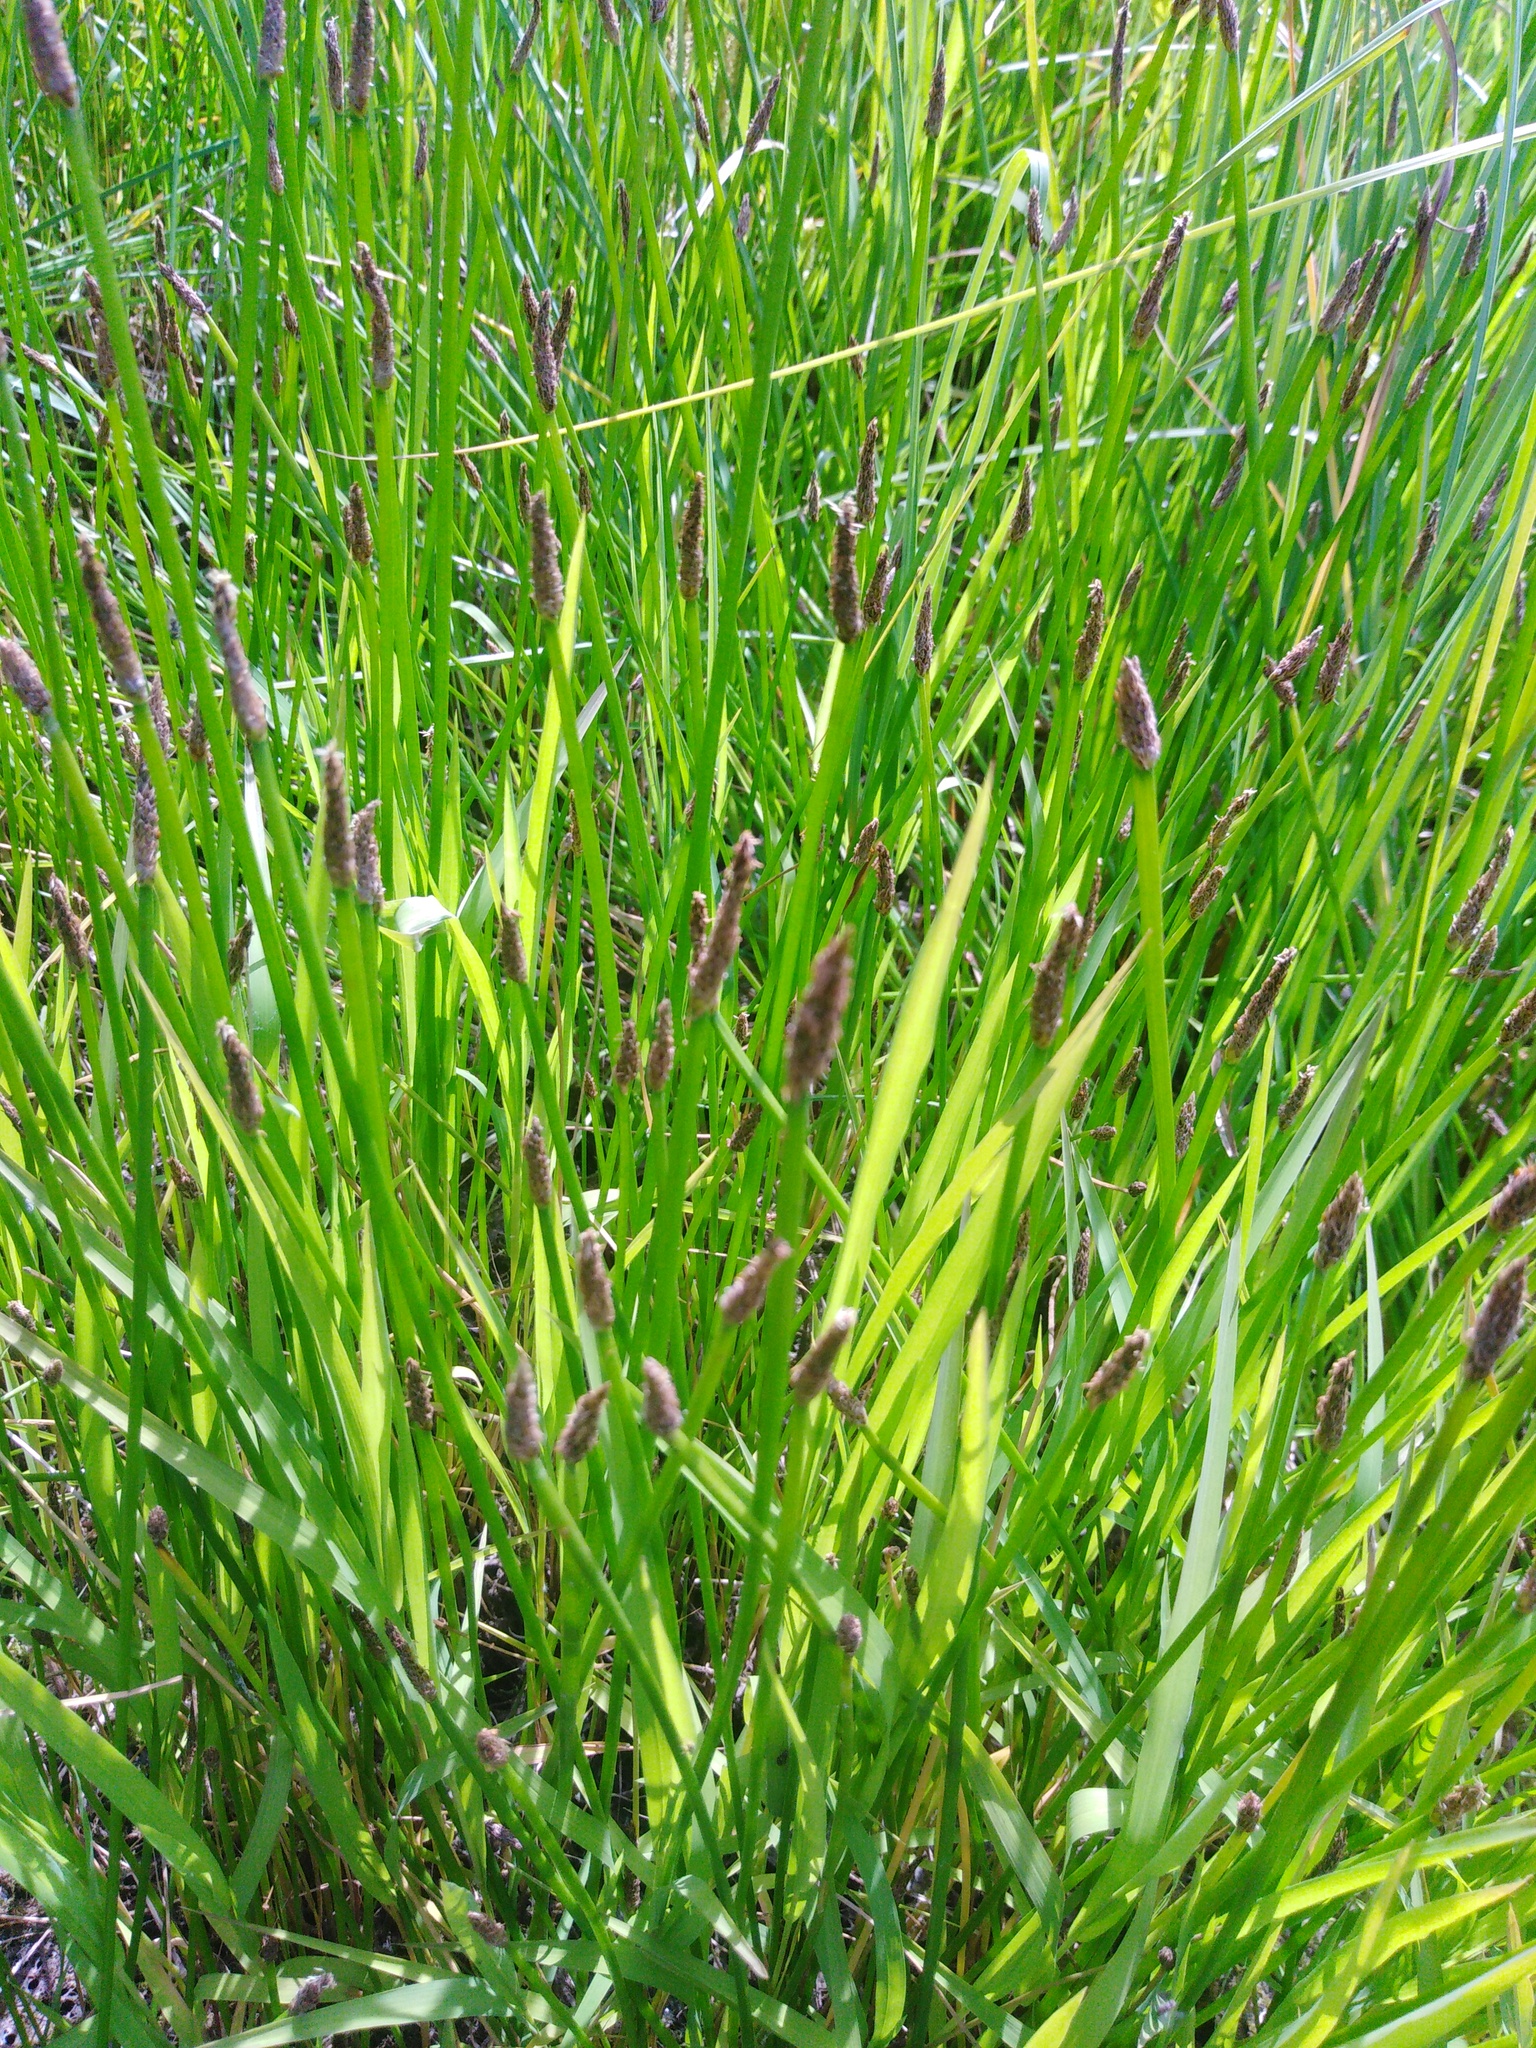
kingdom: Plantae
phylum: Tracheophyta
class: Liliopsida
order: Poales
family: Cyperaceae
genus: Eleocharis
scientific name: Eleocharis palustris
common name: Common spike-rush
